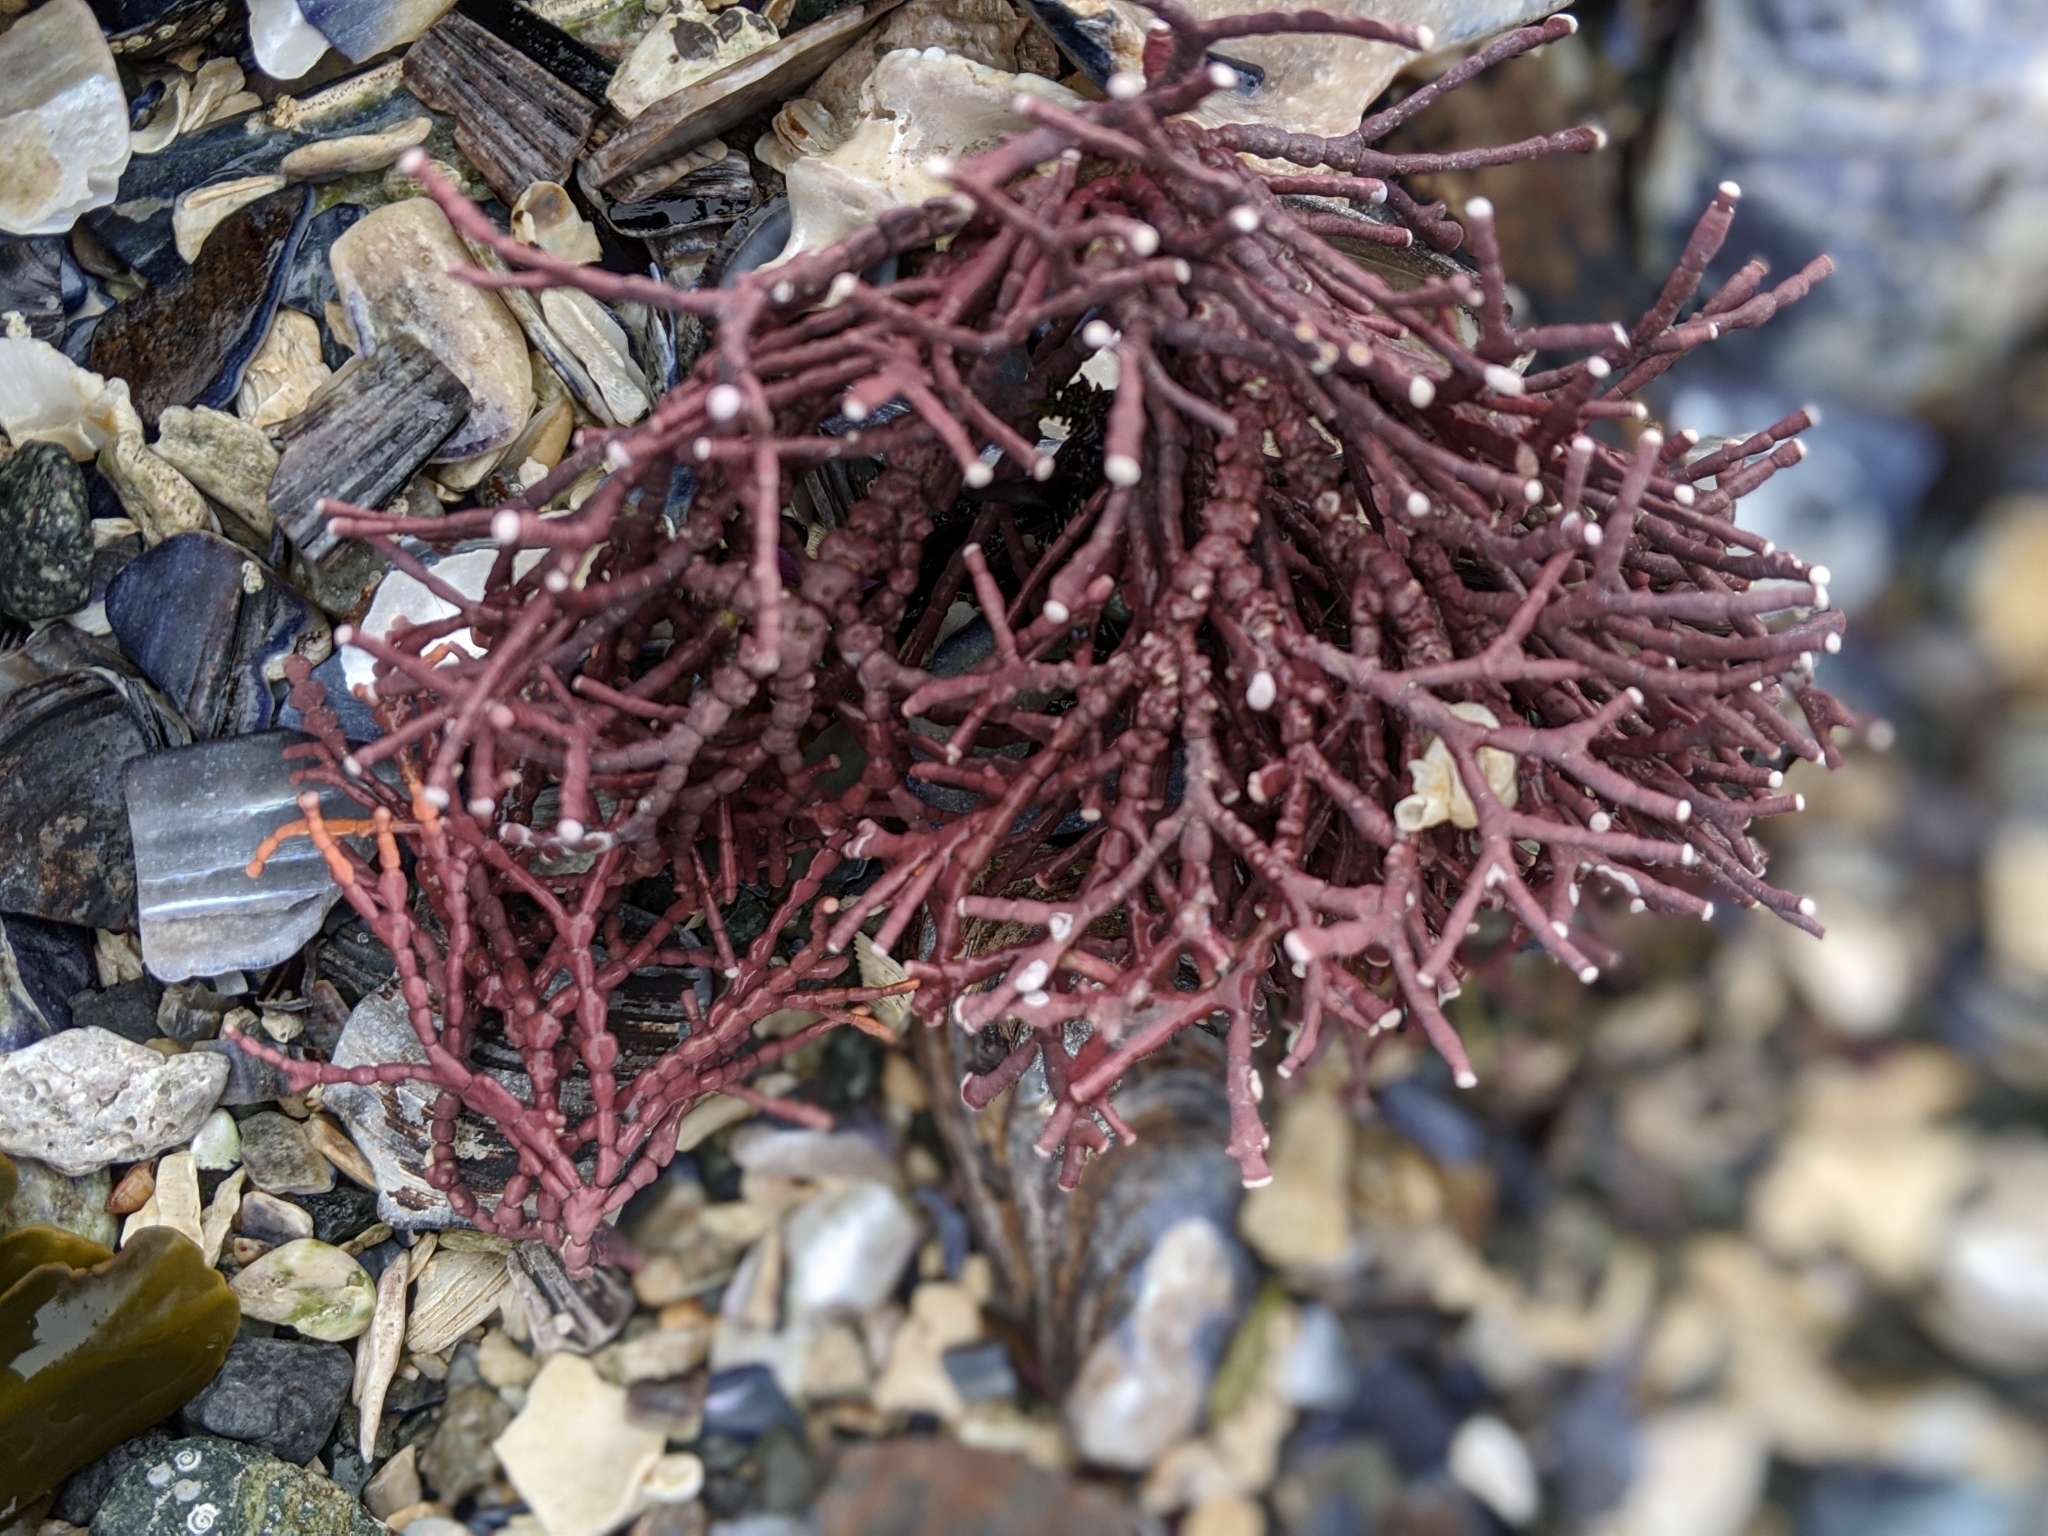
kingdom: Plantae
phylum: Rhodophyta
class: Florideophyceae
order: Corallinales
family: Corallinaceae
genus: Calliarthron
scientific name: Calliarthron tuberculosum
